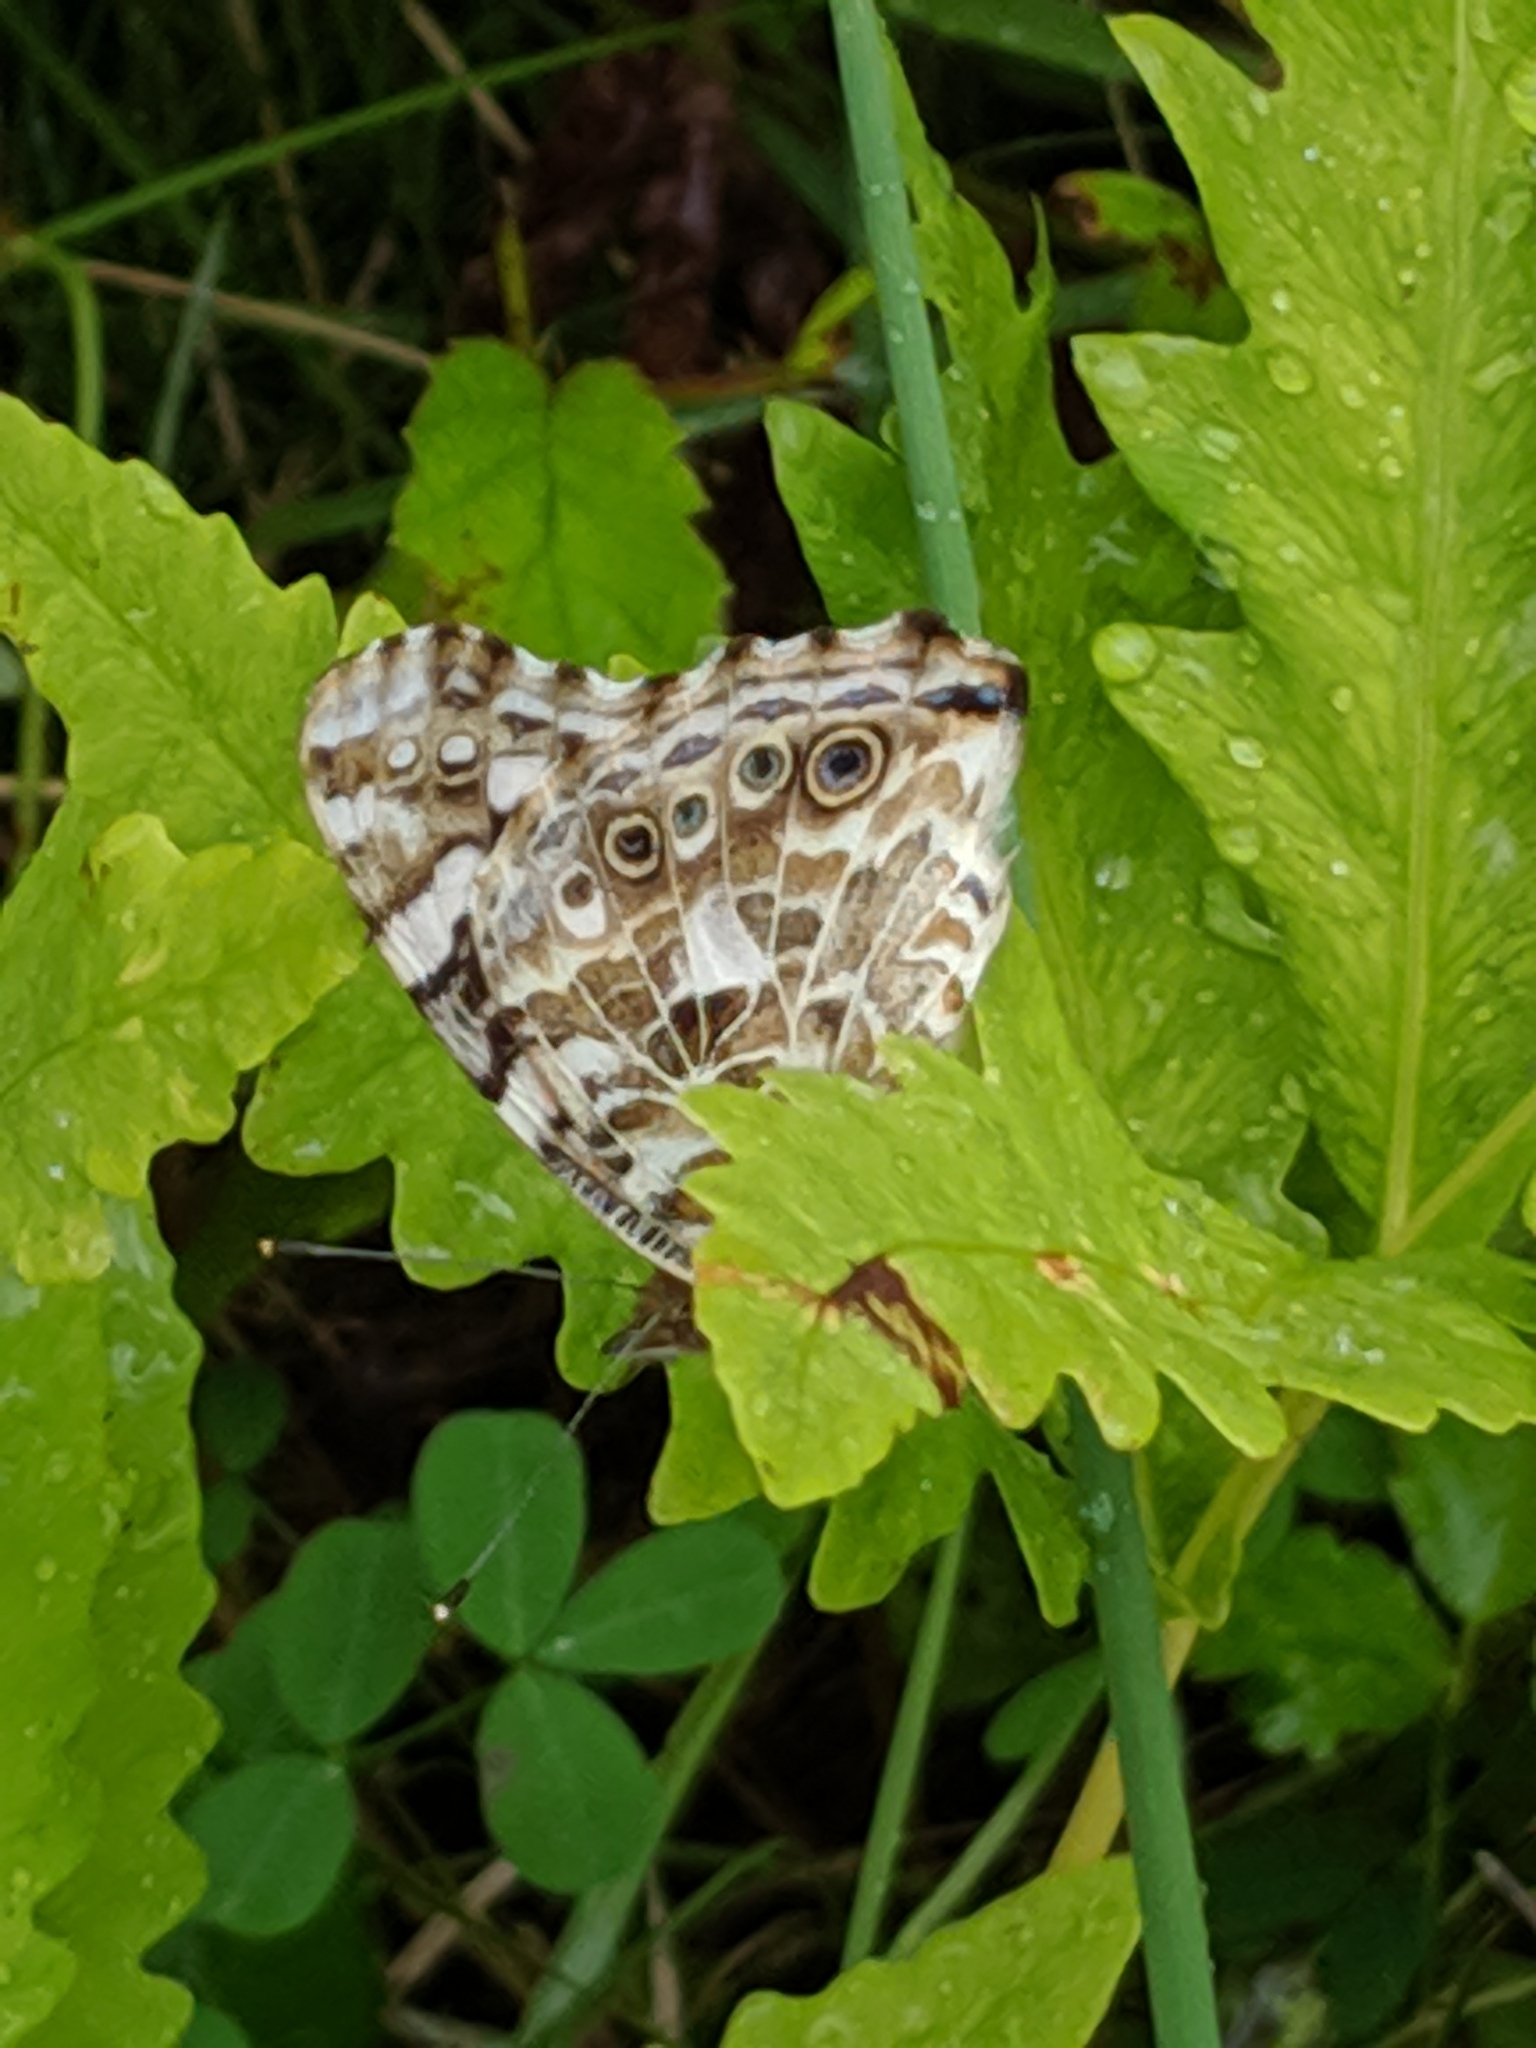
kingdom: Animalia
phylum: Arthropoda
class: Insecta
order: Lepidoptera
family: Nymphalidae
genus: Vanessa
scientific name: Vanessa cardui
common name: Painted lady
